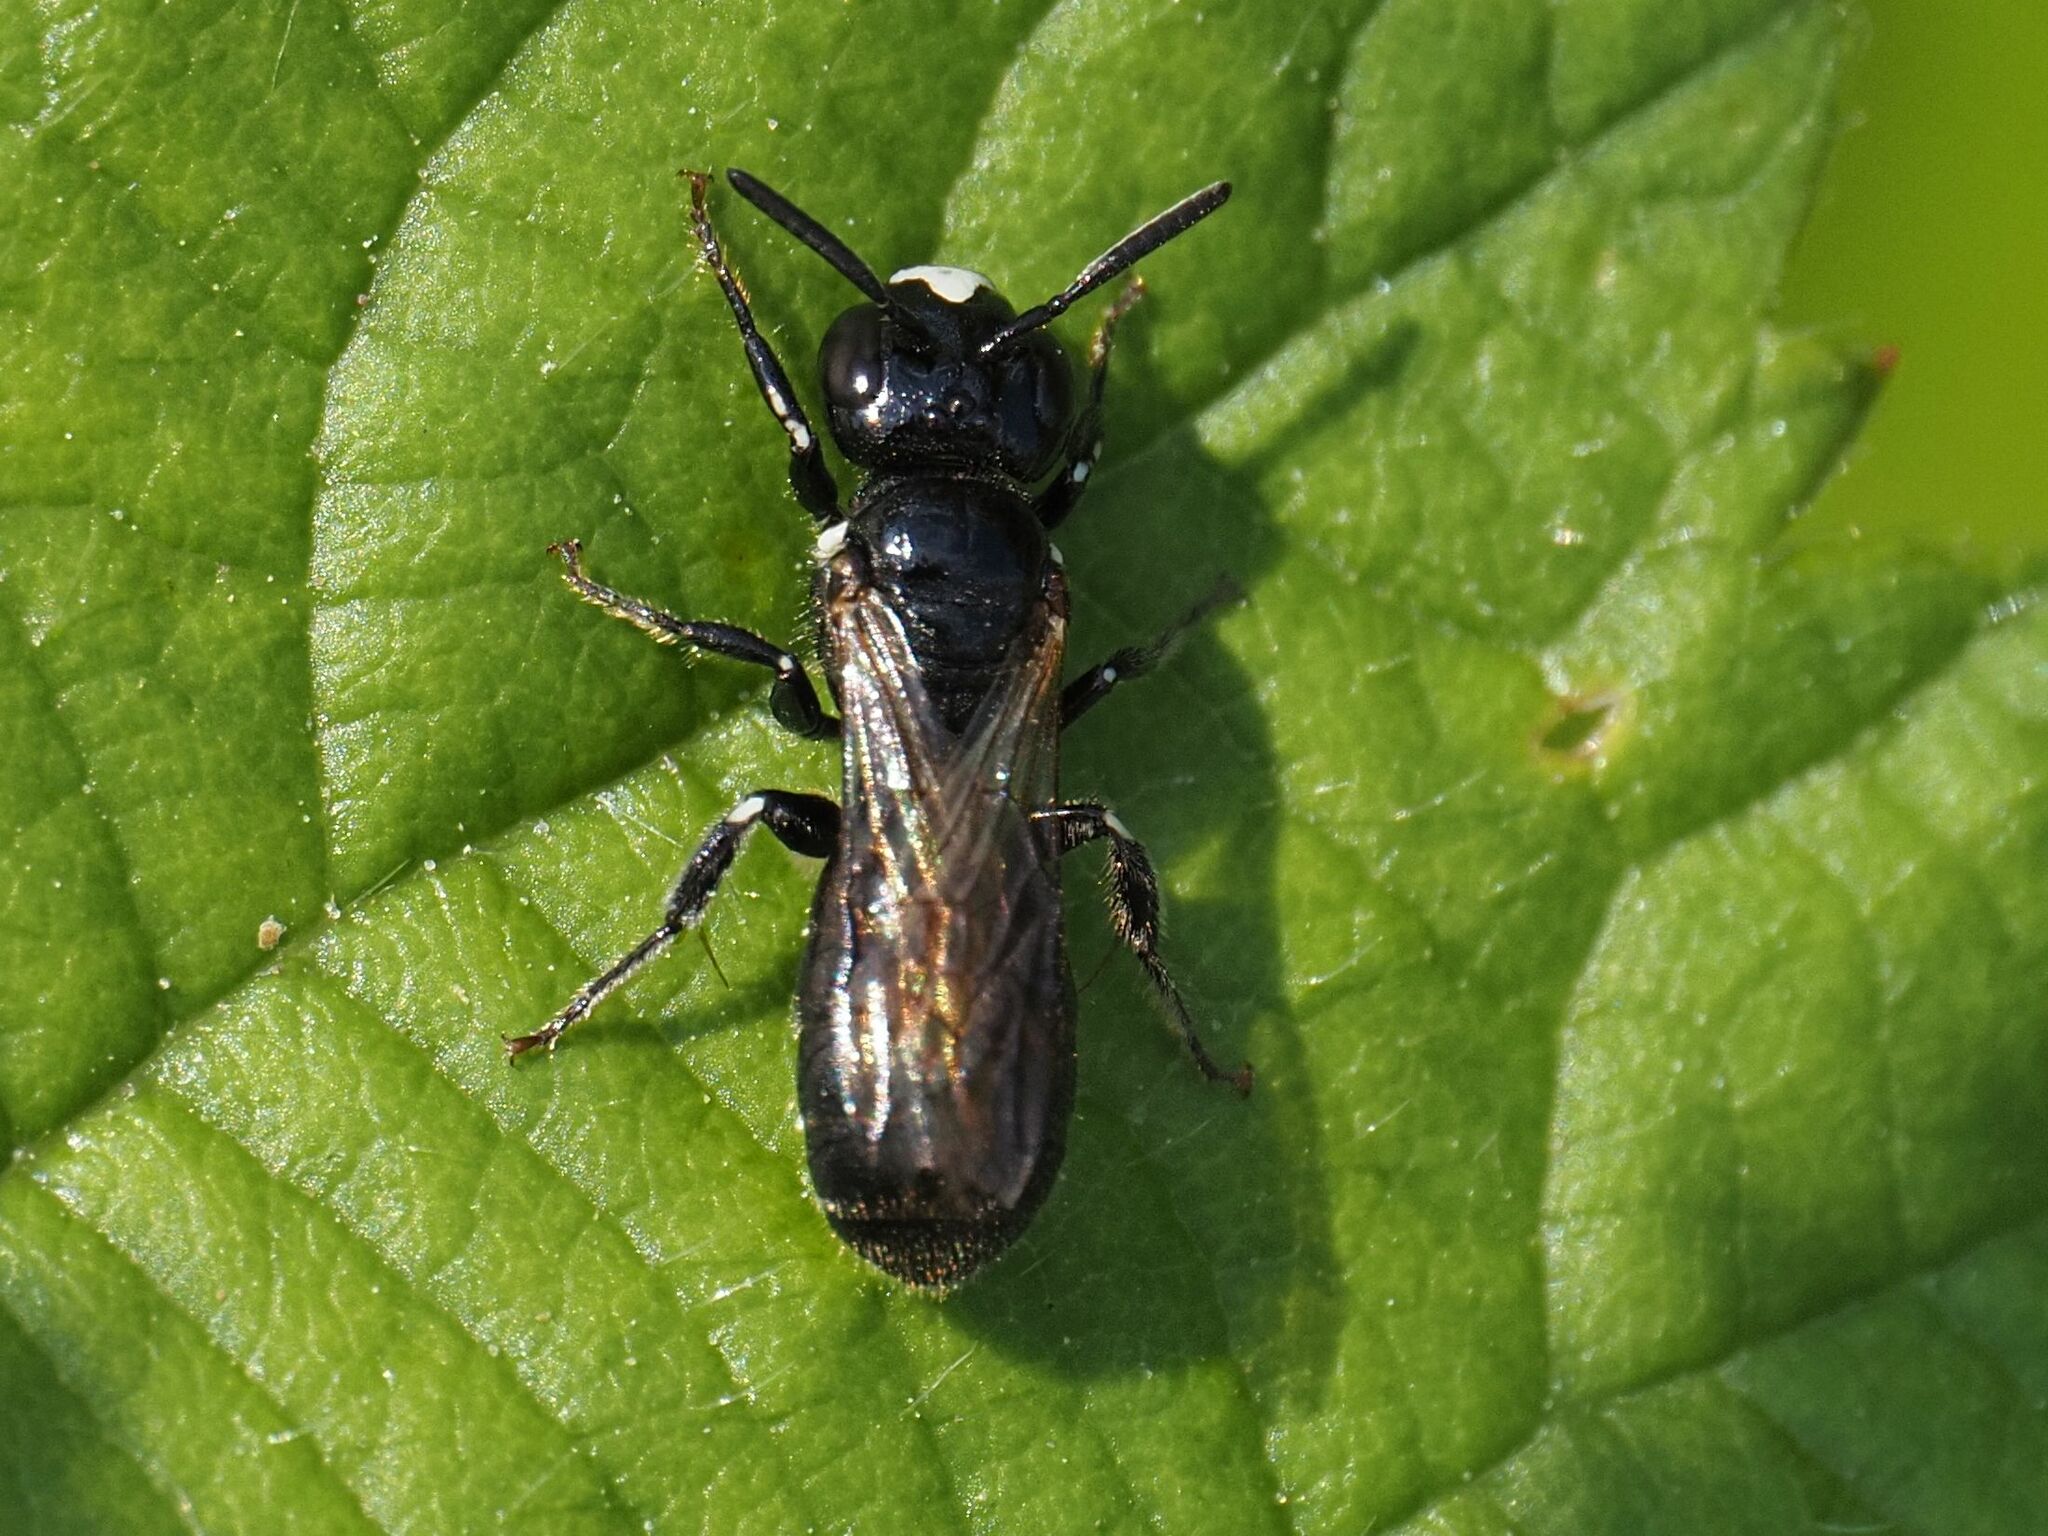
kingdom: Animalia
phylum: Arthropoda
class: Insecta
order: Hymenoptera
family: Apidae
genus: Ceratina
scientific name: Ceratina cucurbitina
